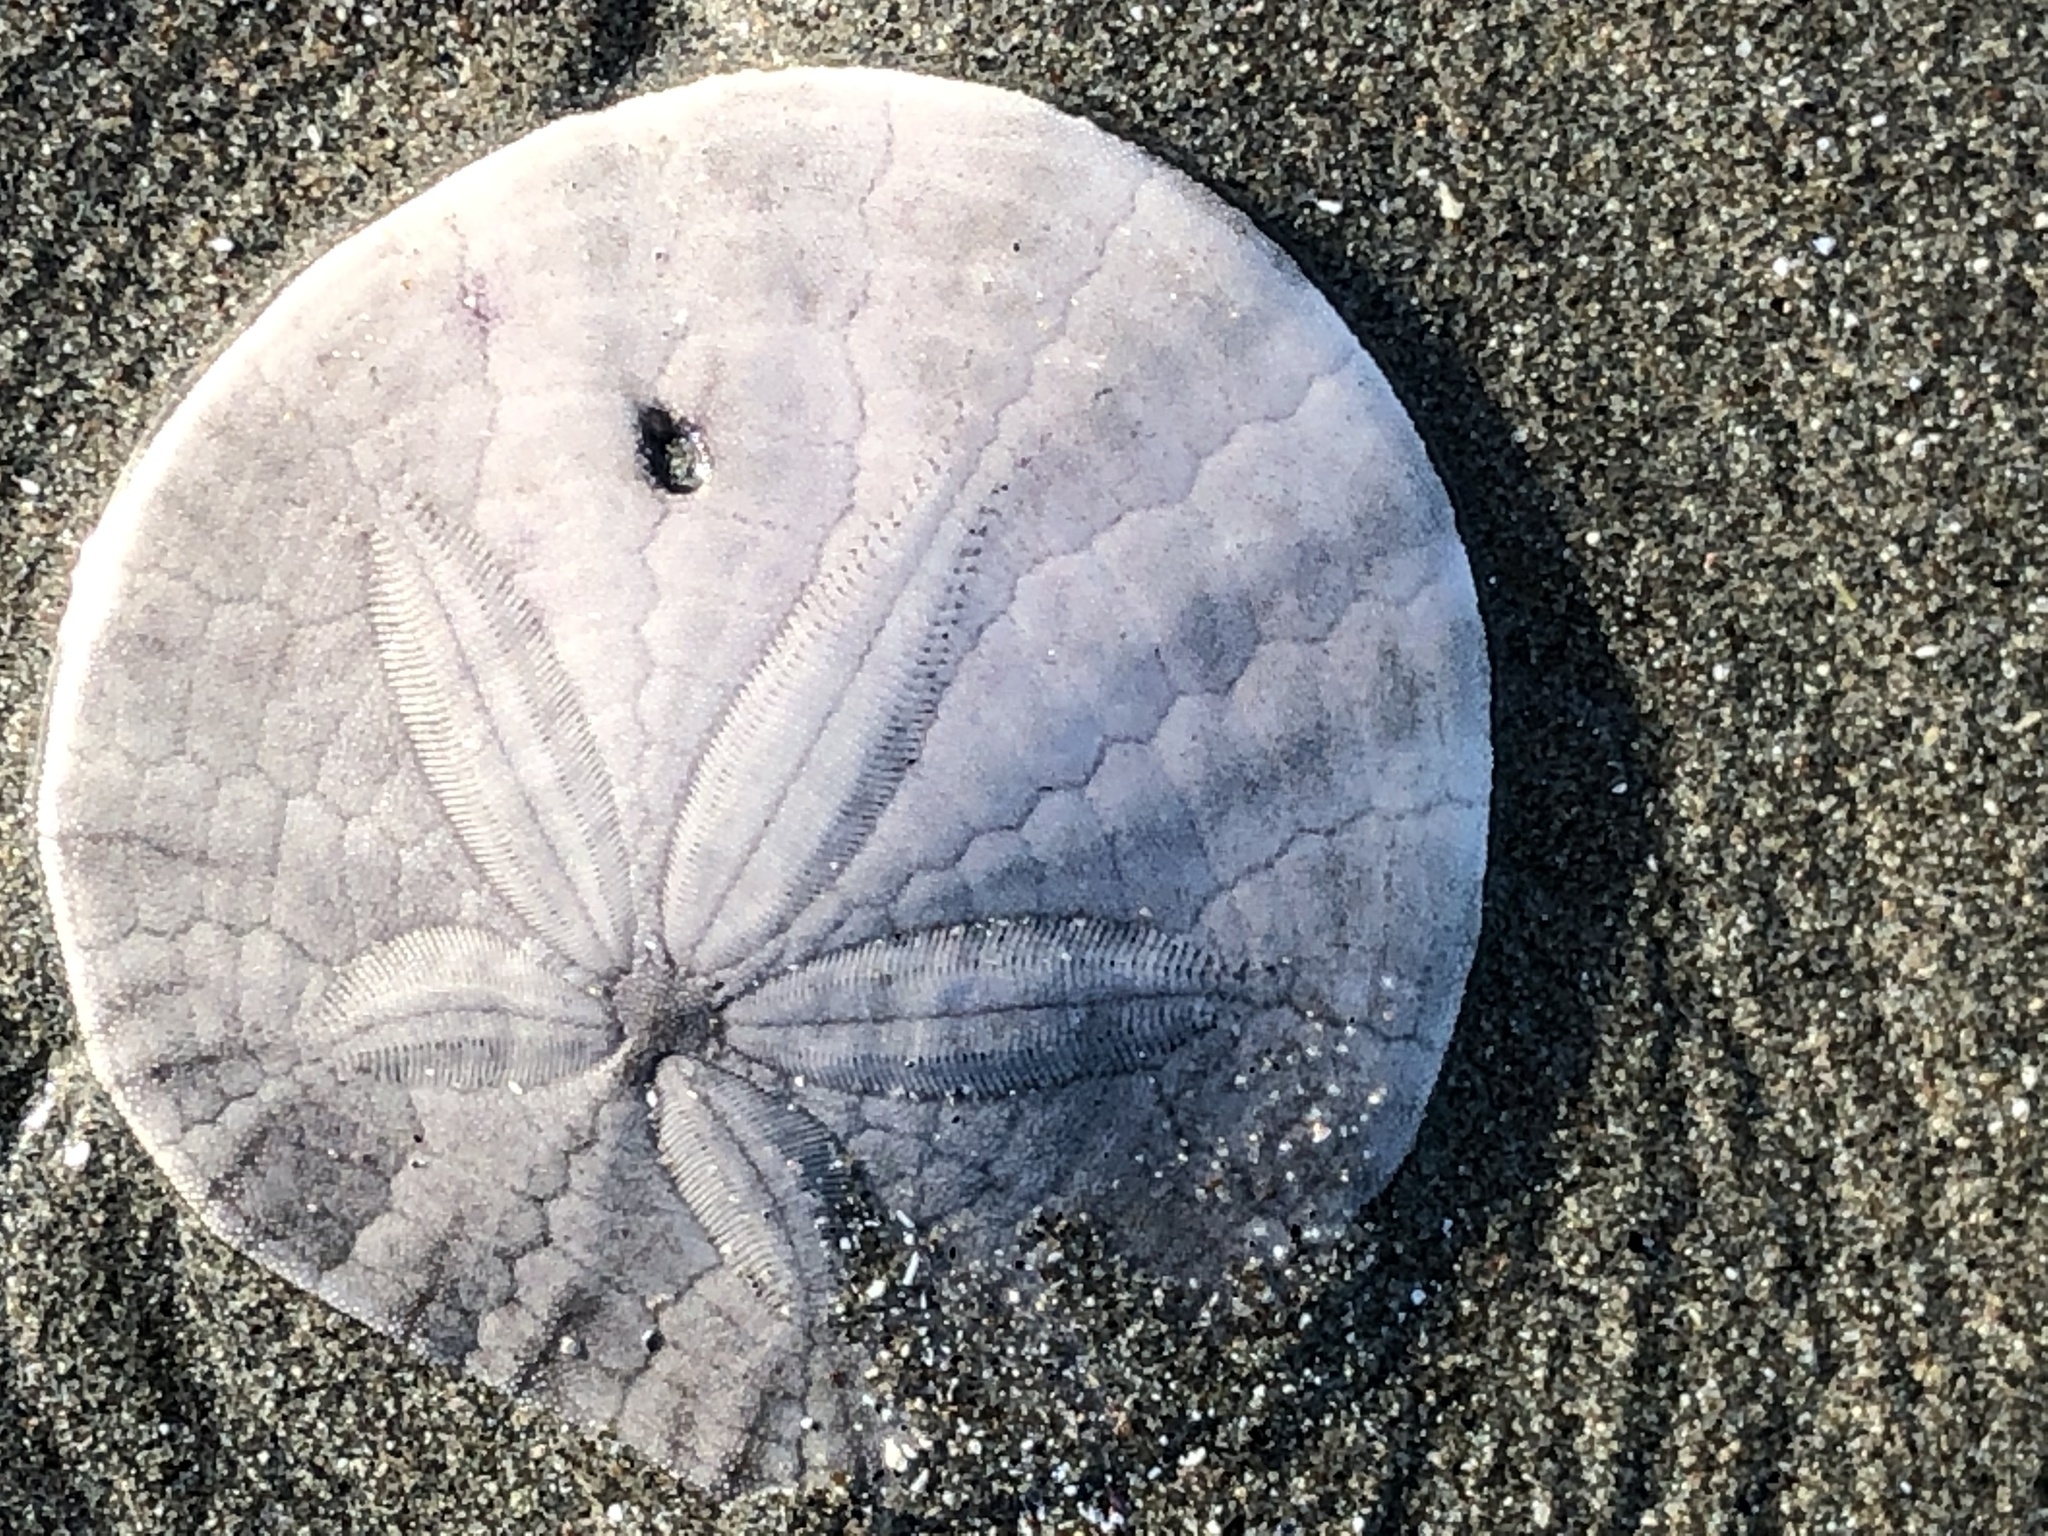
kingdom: Animalia
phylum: Echinodermata
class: Echinoidea
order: Echinolampadacea
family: Dendrasteridae
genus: Dendraster
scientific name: Dendraster excentricus
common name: Eccentric sand dollar sea urchin
